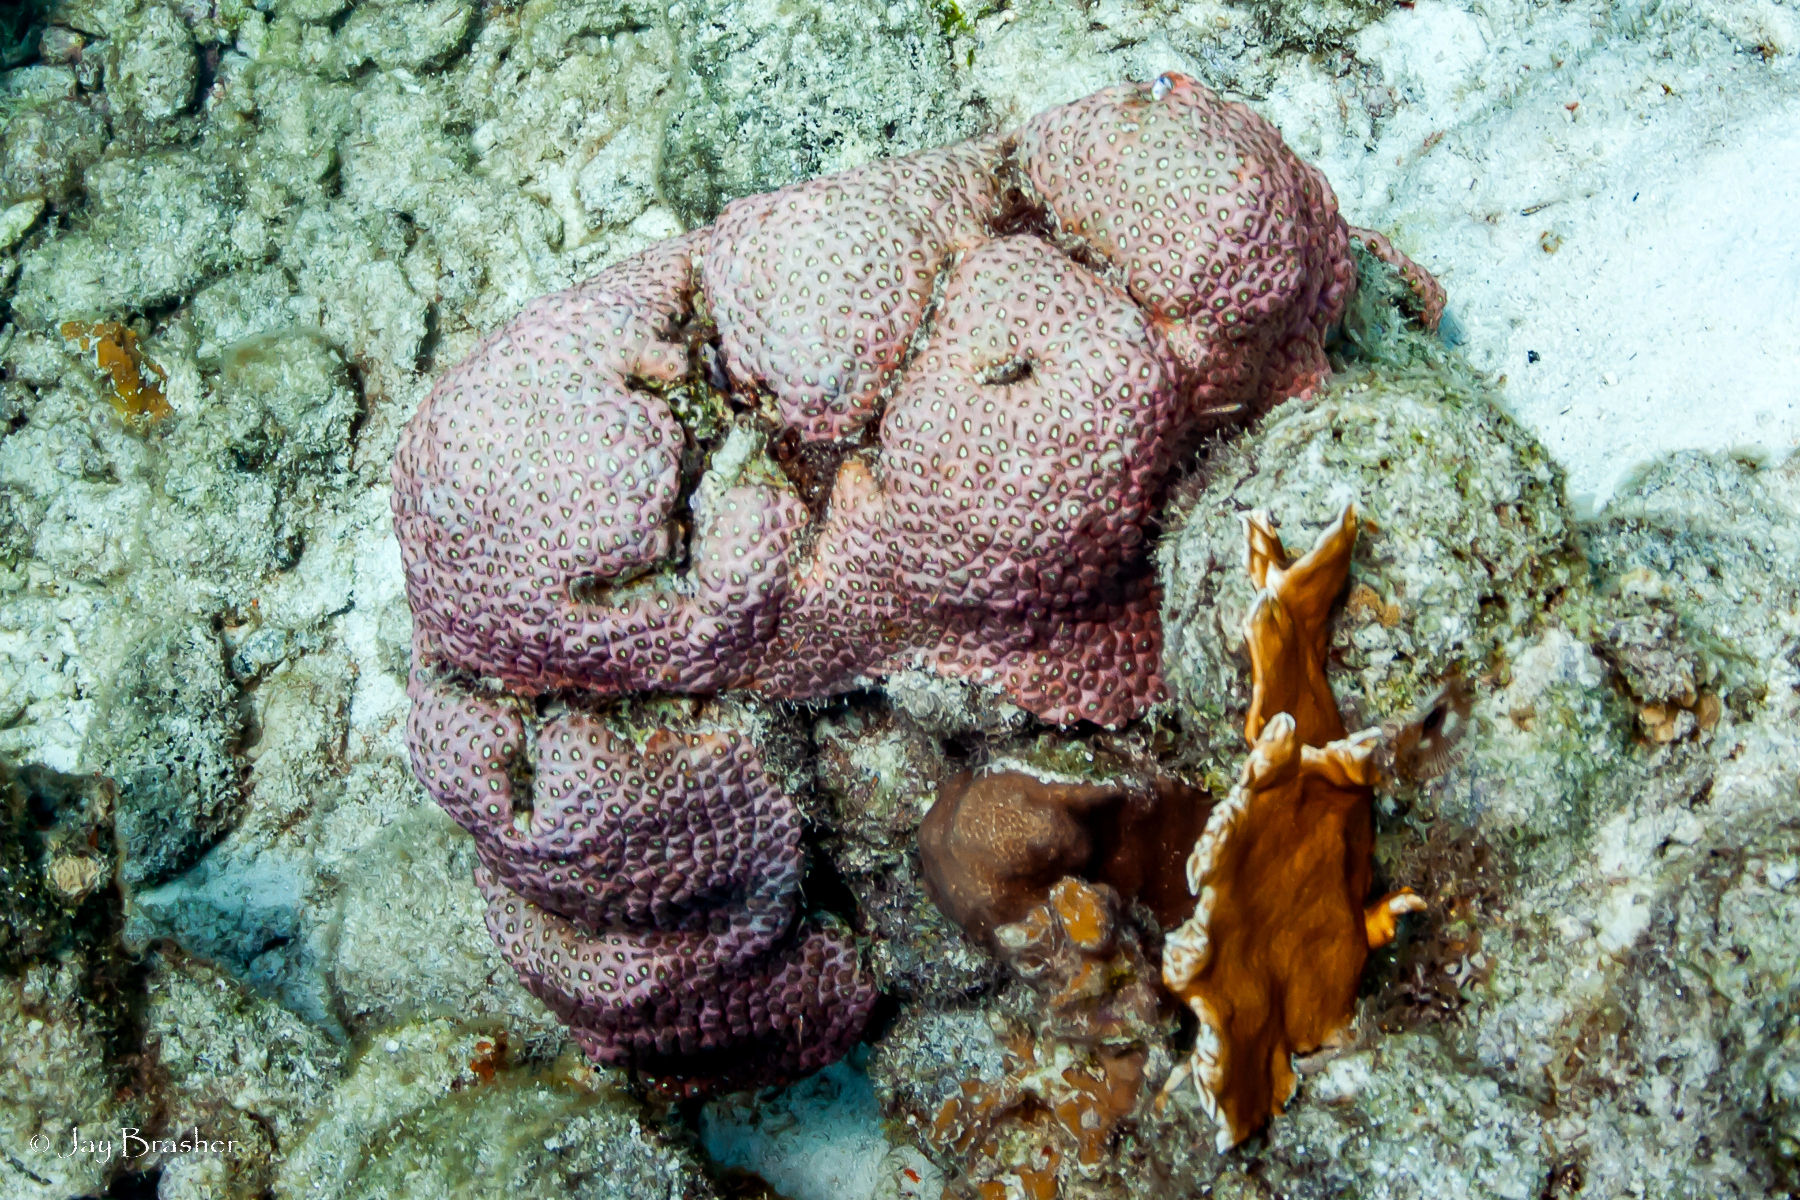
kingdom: Animalia
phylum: Cnidaria
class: Anthozoa
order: Scleractinia
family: Montastraeidae
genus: Montastraea
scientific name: Montastraea cavernosa
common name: Great star coral
